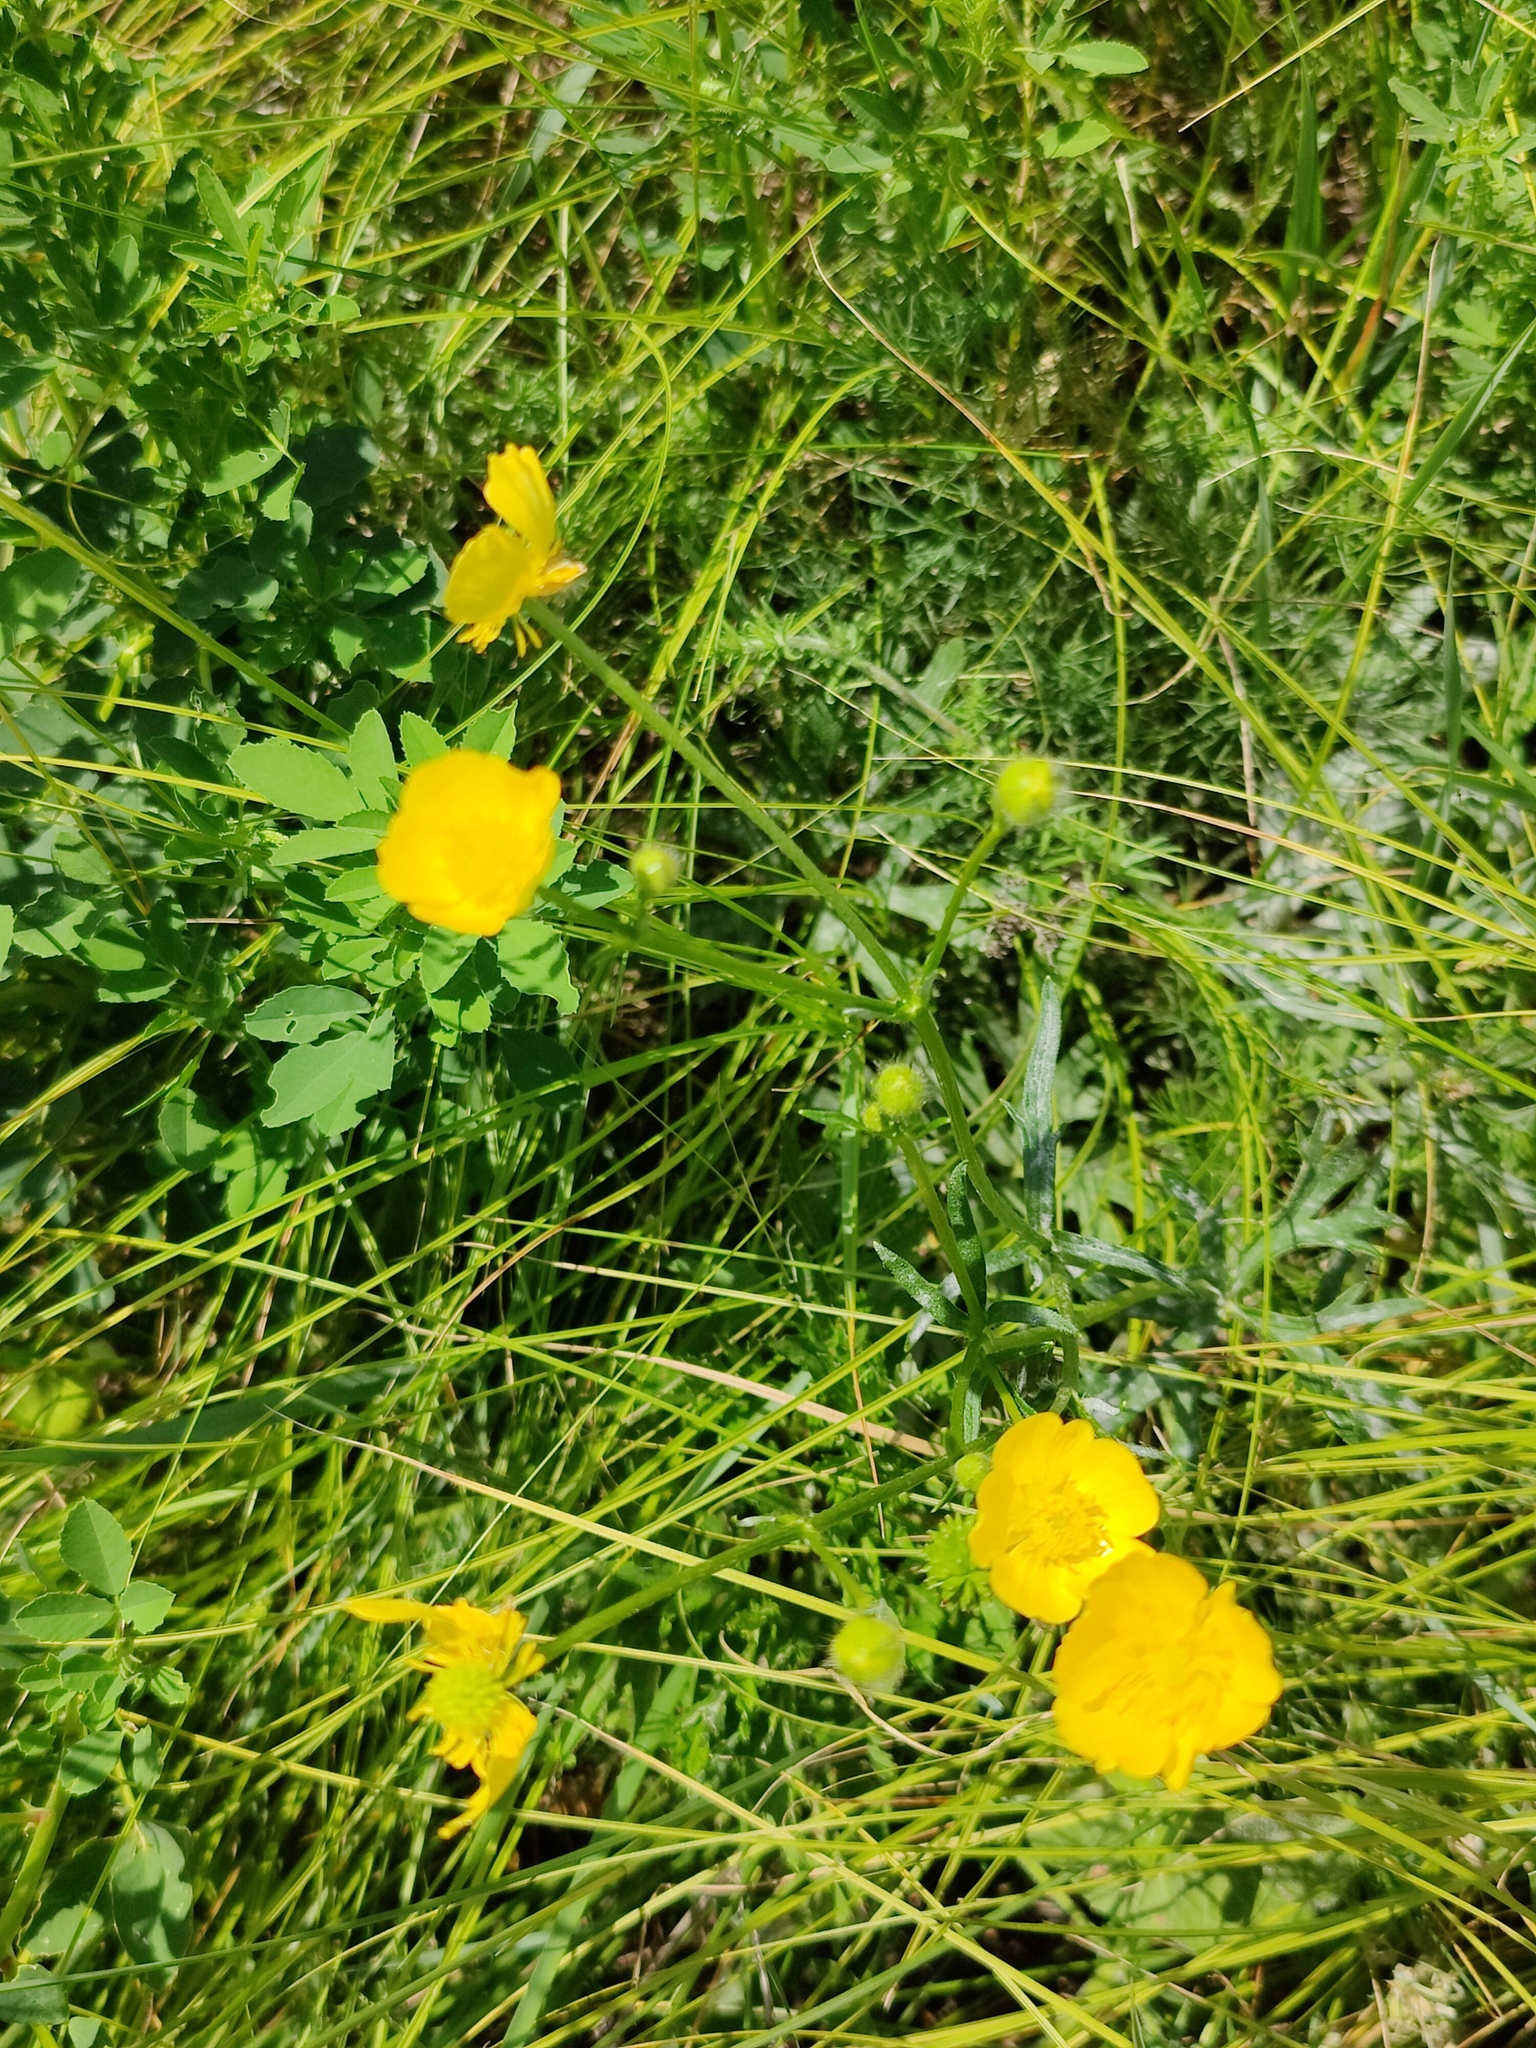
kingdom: Plantae
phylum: Tracheophyta
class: Magnoliopsida
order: Ranunculales
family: Ranunculaceae
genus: Ranunculus
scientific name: Ranunculus polyanthemos
